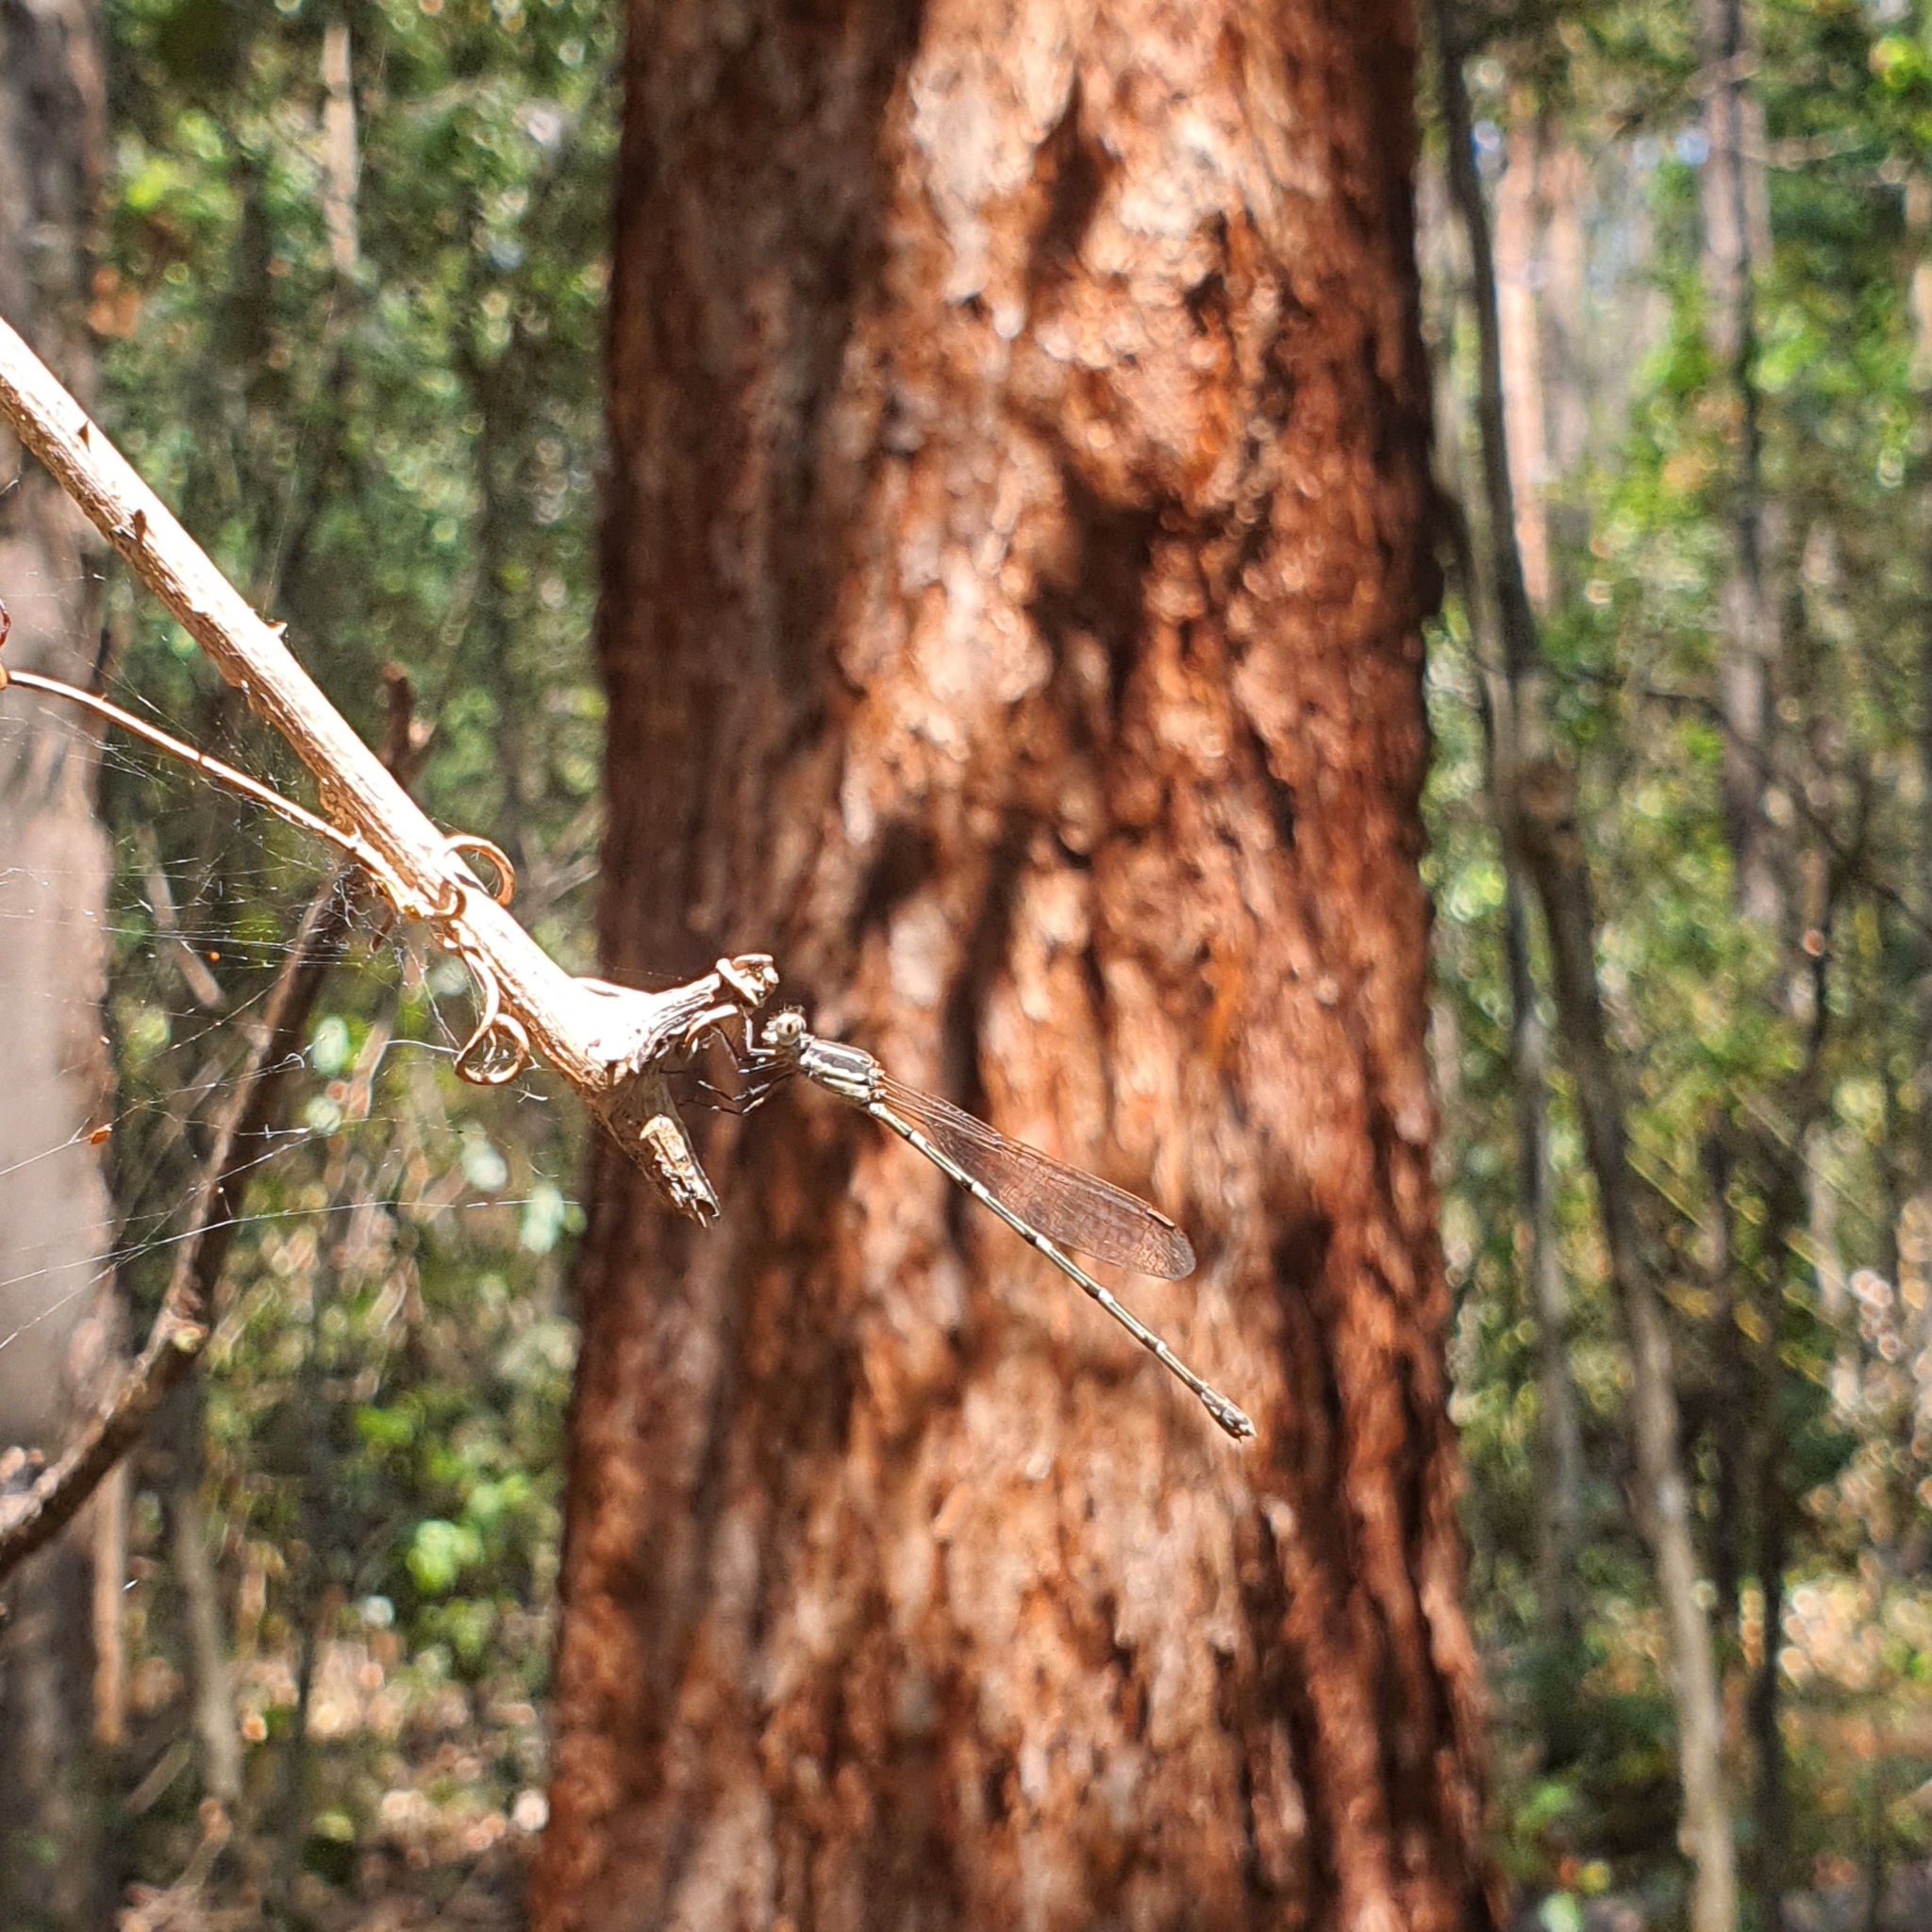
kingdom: Animalia
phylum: Arthropoda
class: Insecta
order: Odonata
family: Lestidae
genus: Austrolestes
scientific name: Austrolestes leda
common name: Wandering ringtail
